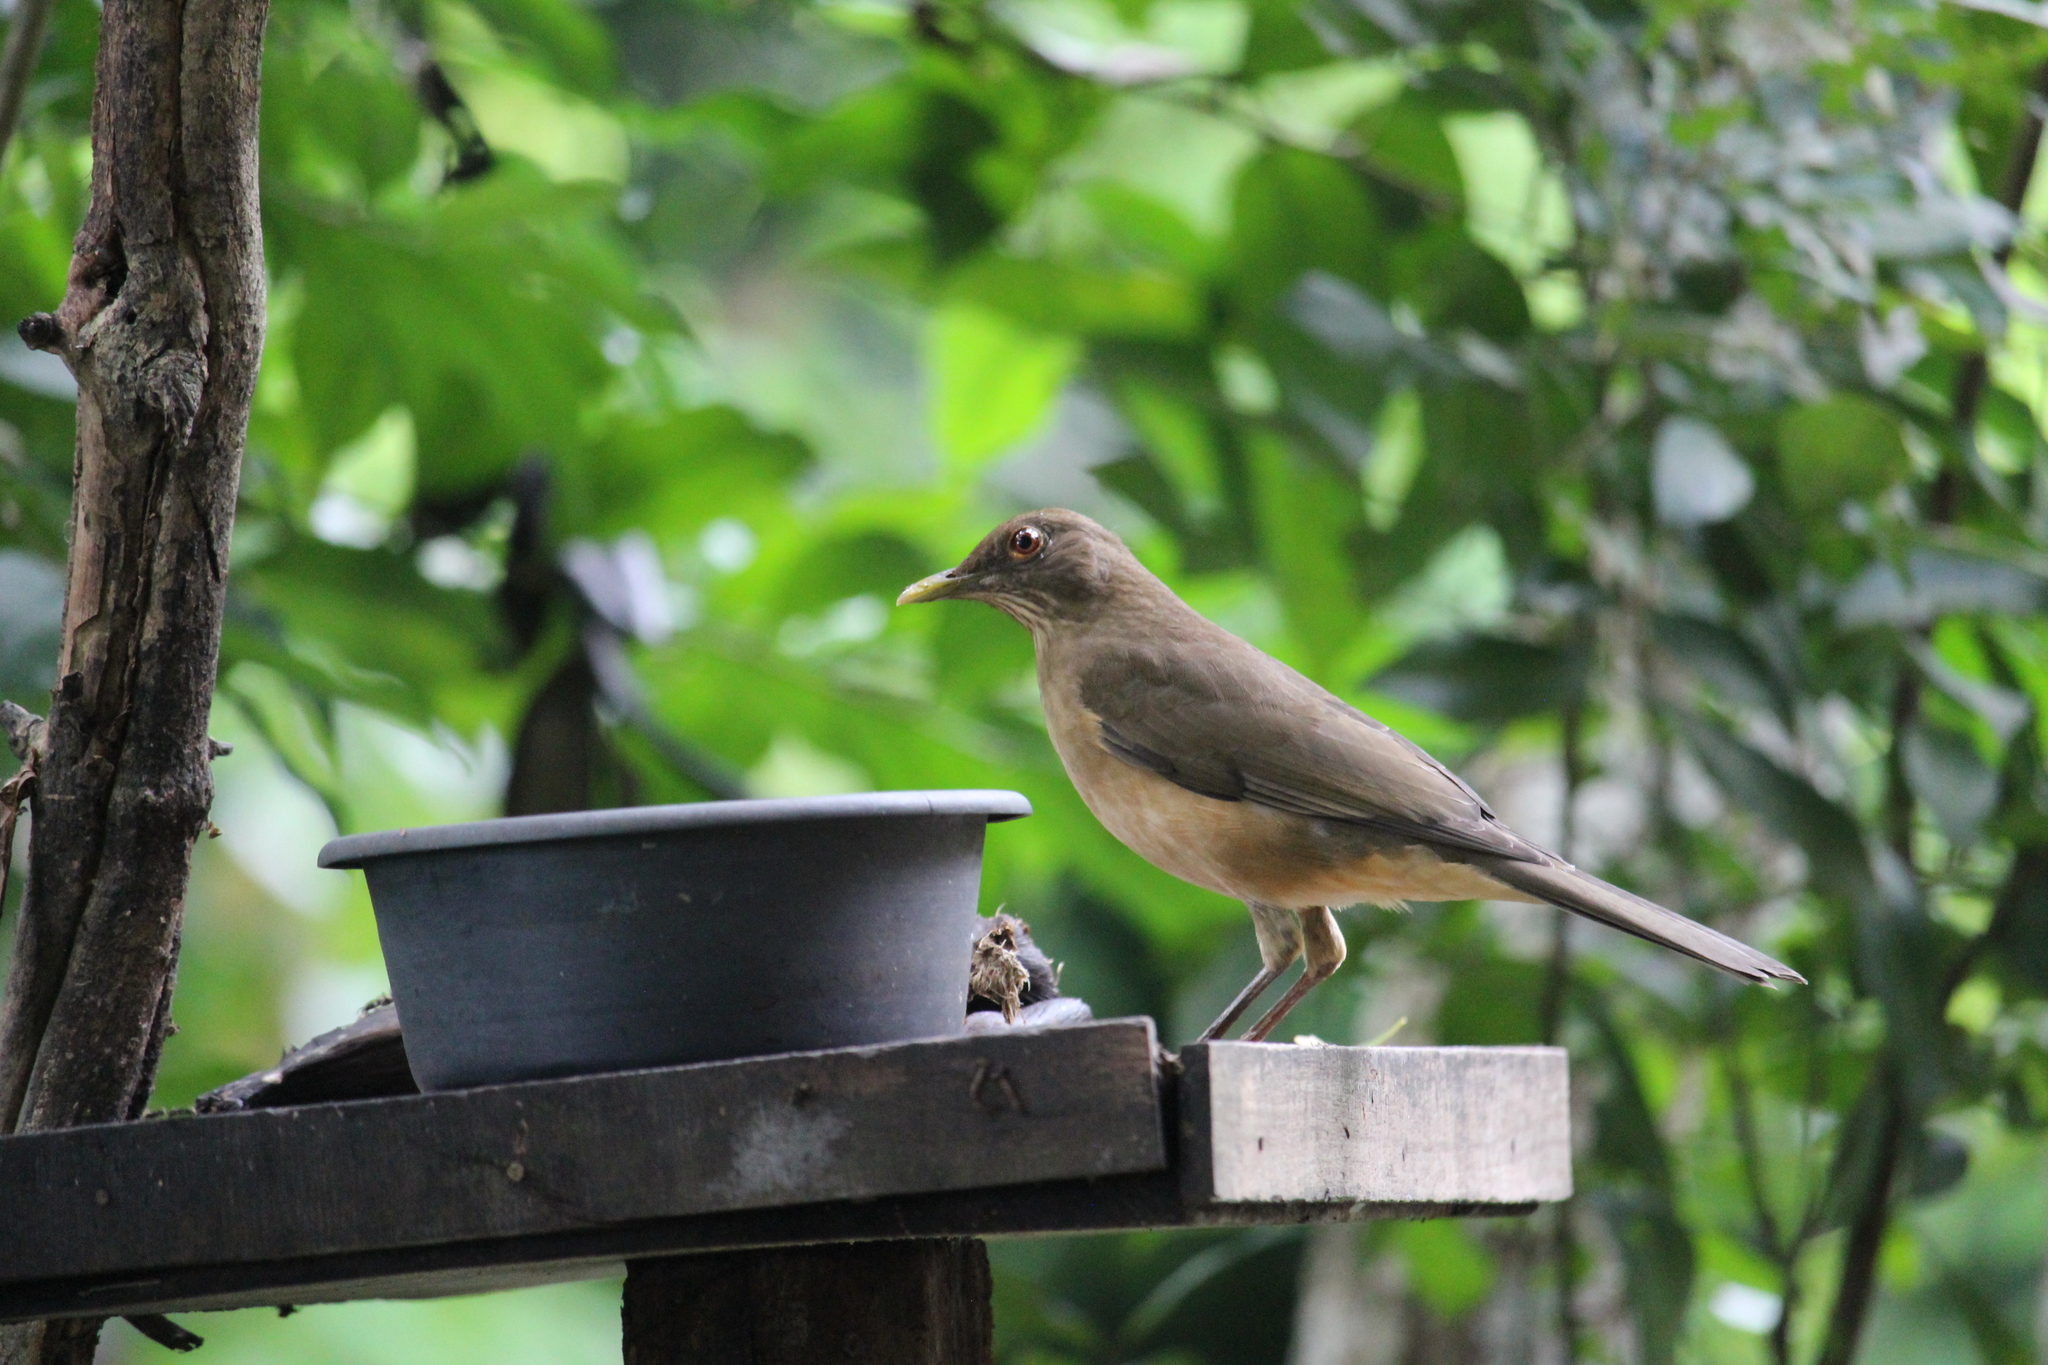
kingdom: Animalia
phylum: Chordata
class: Aves
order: Passeriformes
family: Turdidae
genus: Turdus
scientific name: Turdus grayi
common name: Clay-colored thrush
